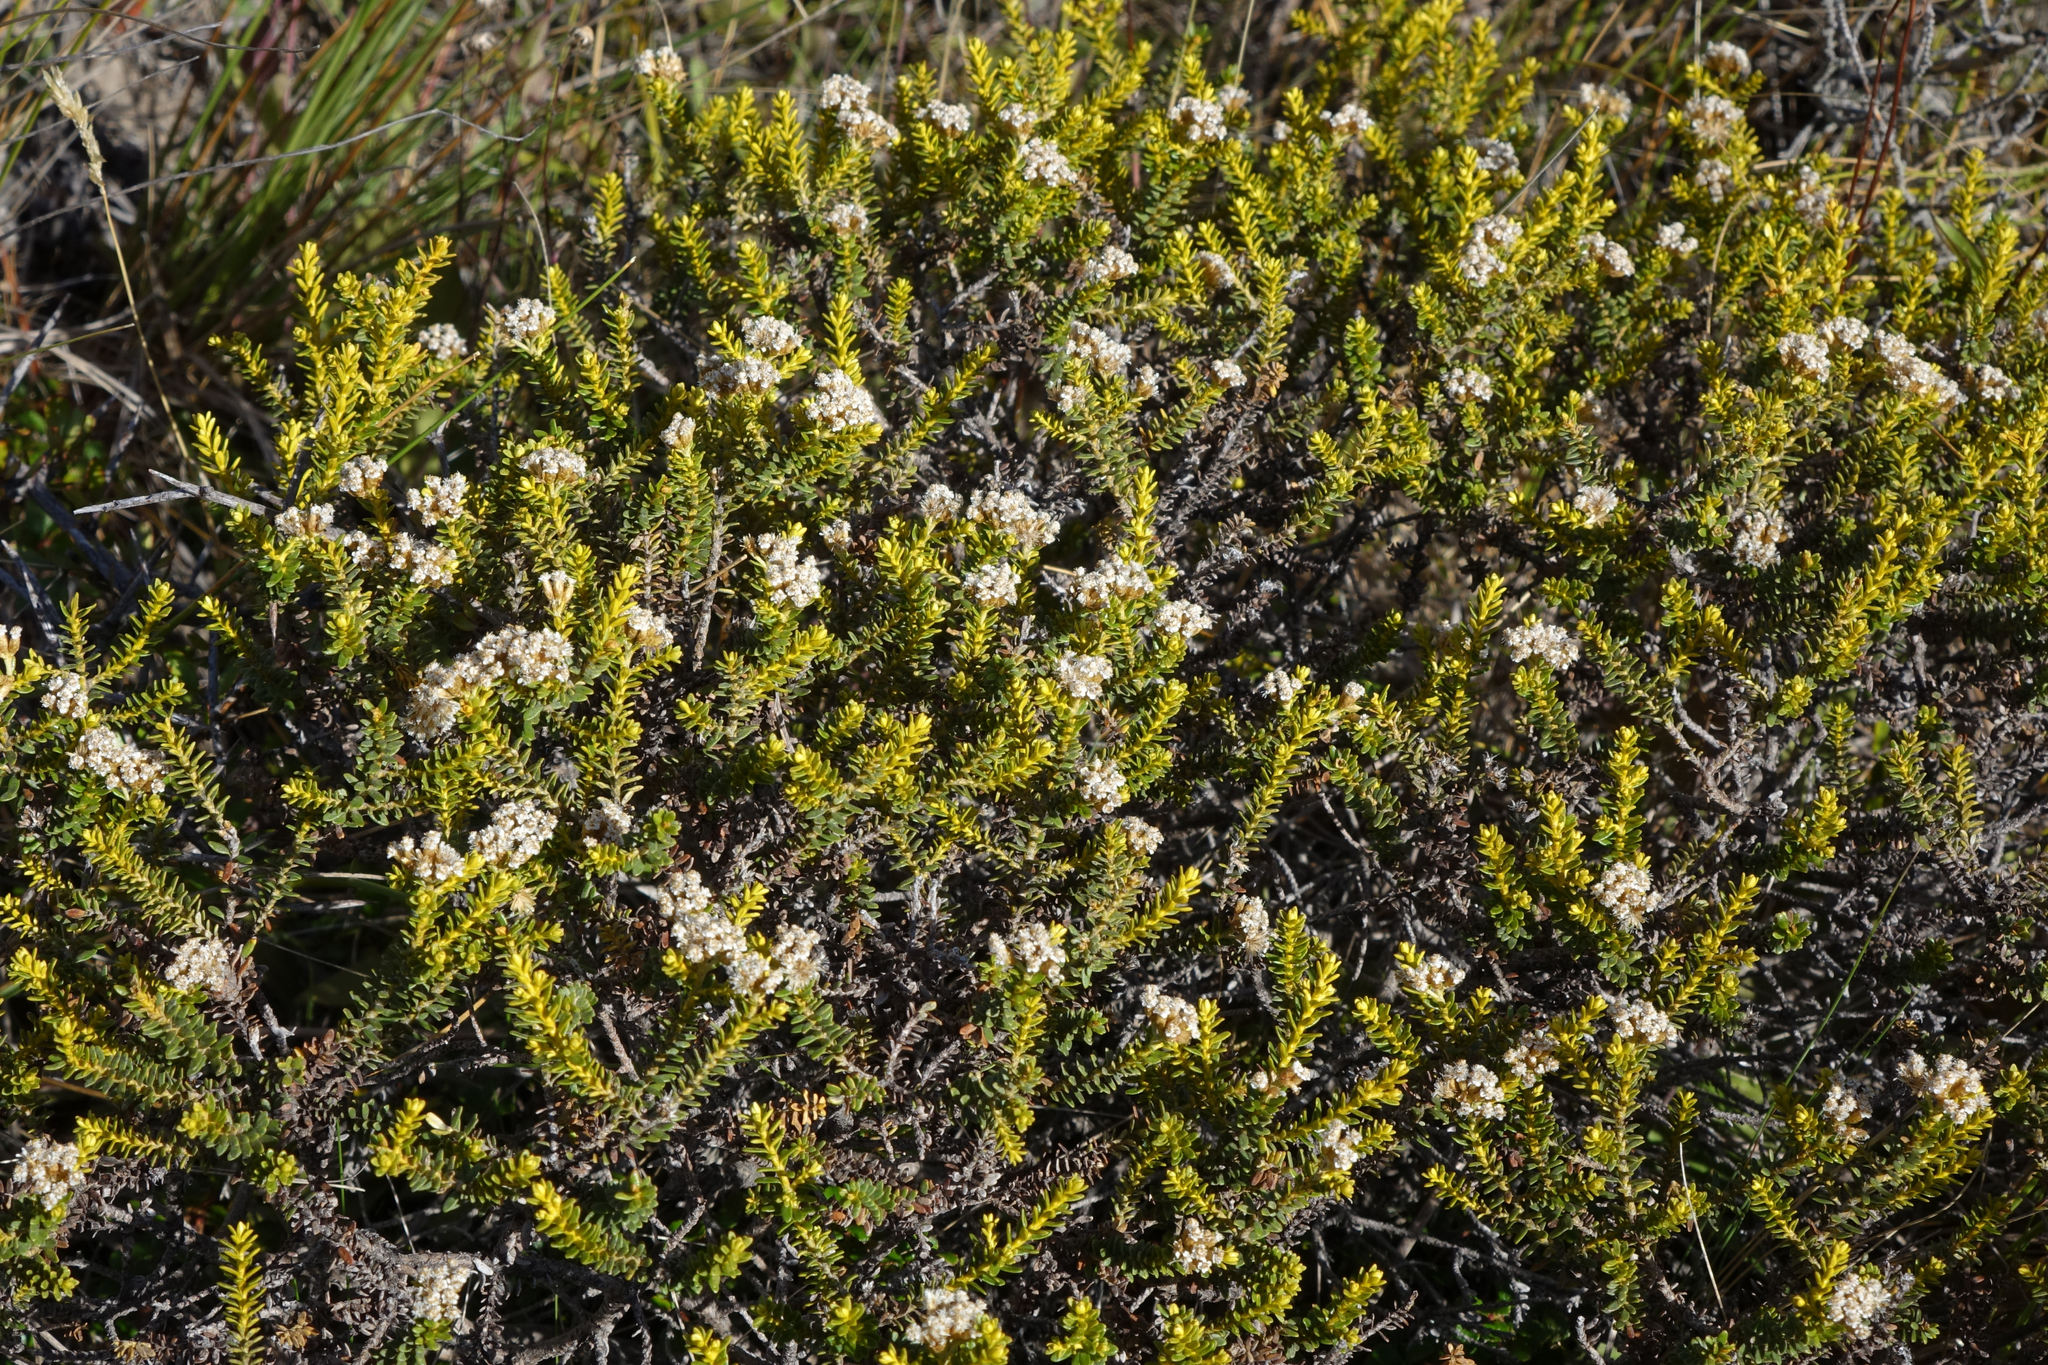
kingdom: Plantae
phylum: Tracheophyta
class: Magnoliopsida
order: Asterales
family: Asteraceae
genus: Ozothamnus
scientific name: Ozothamnus leptophyllus
